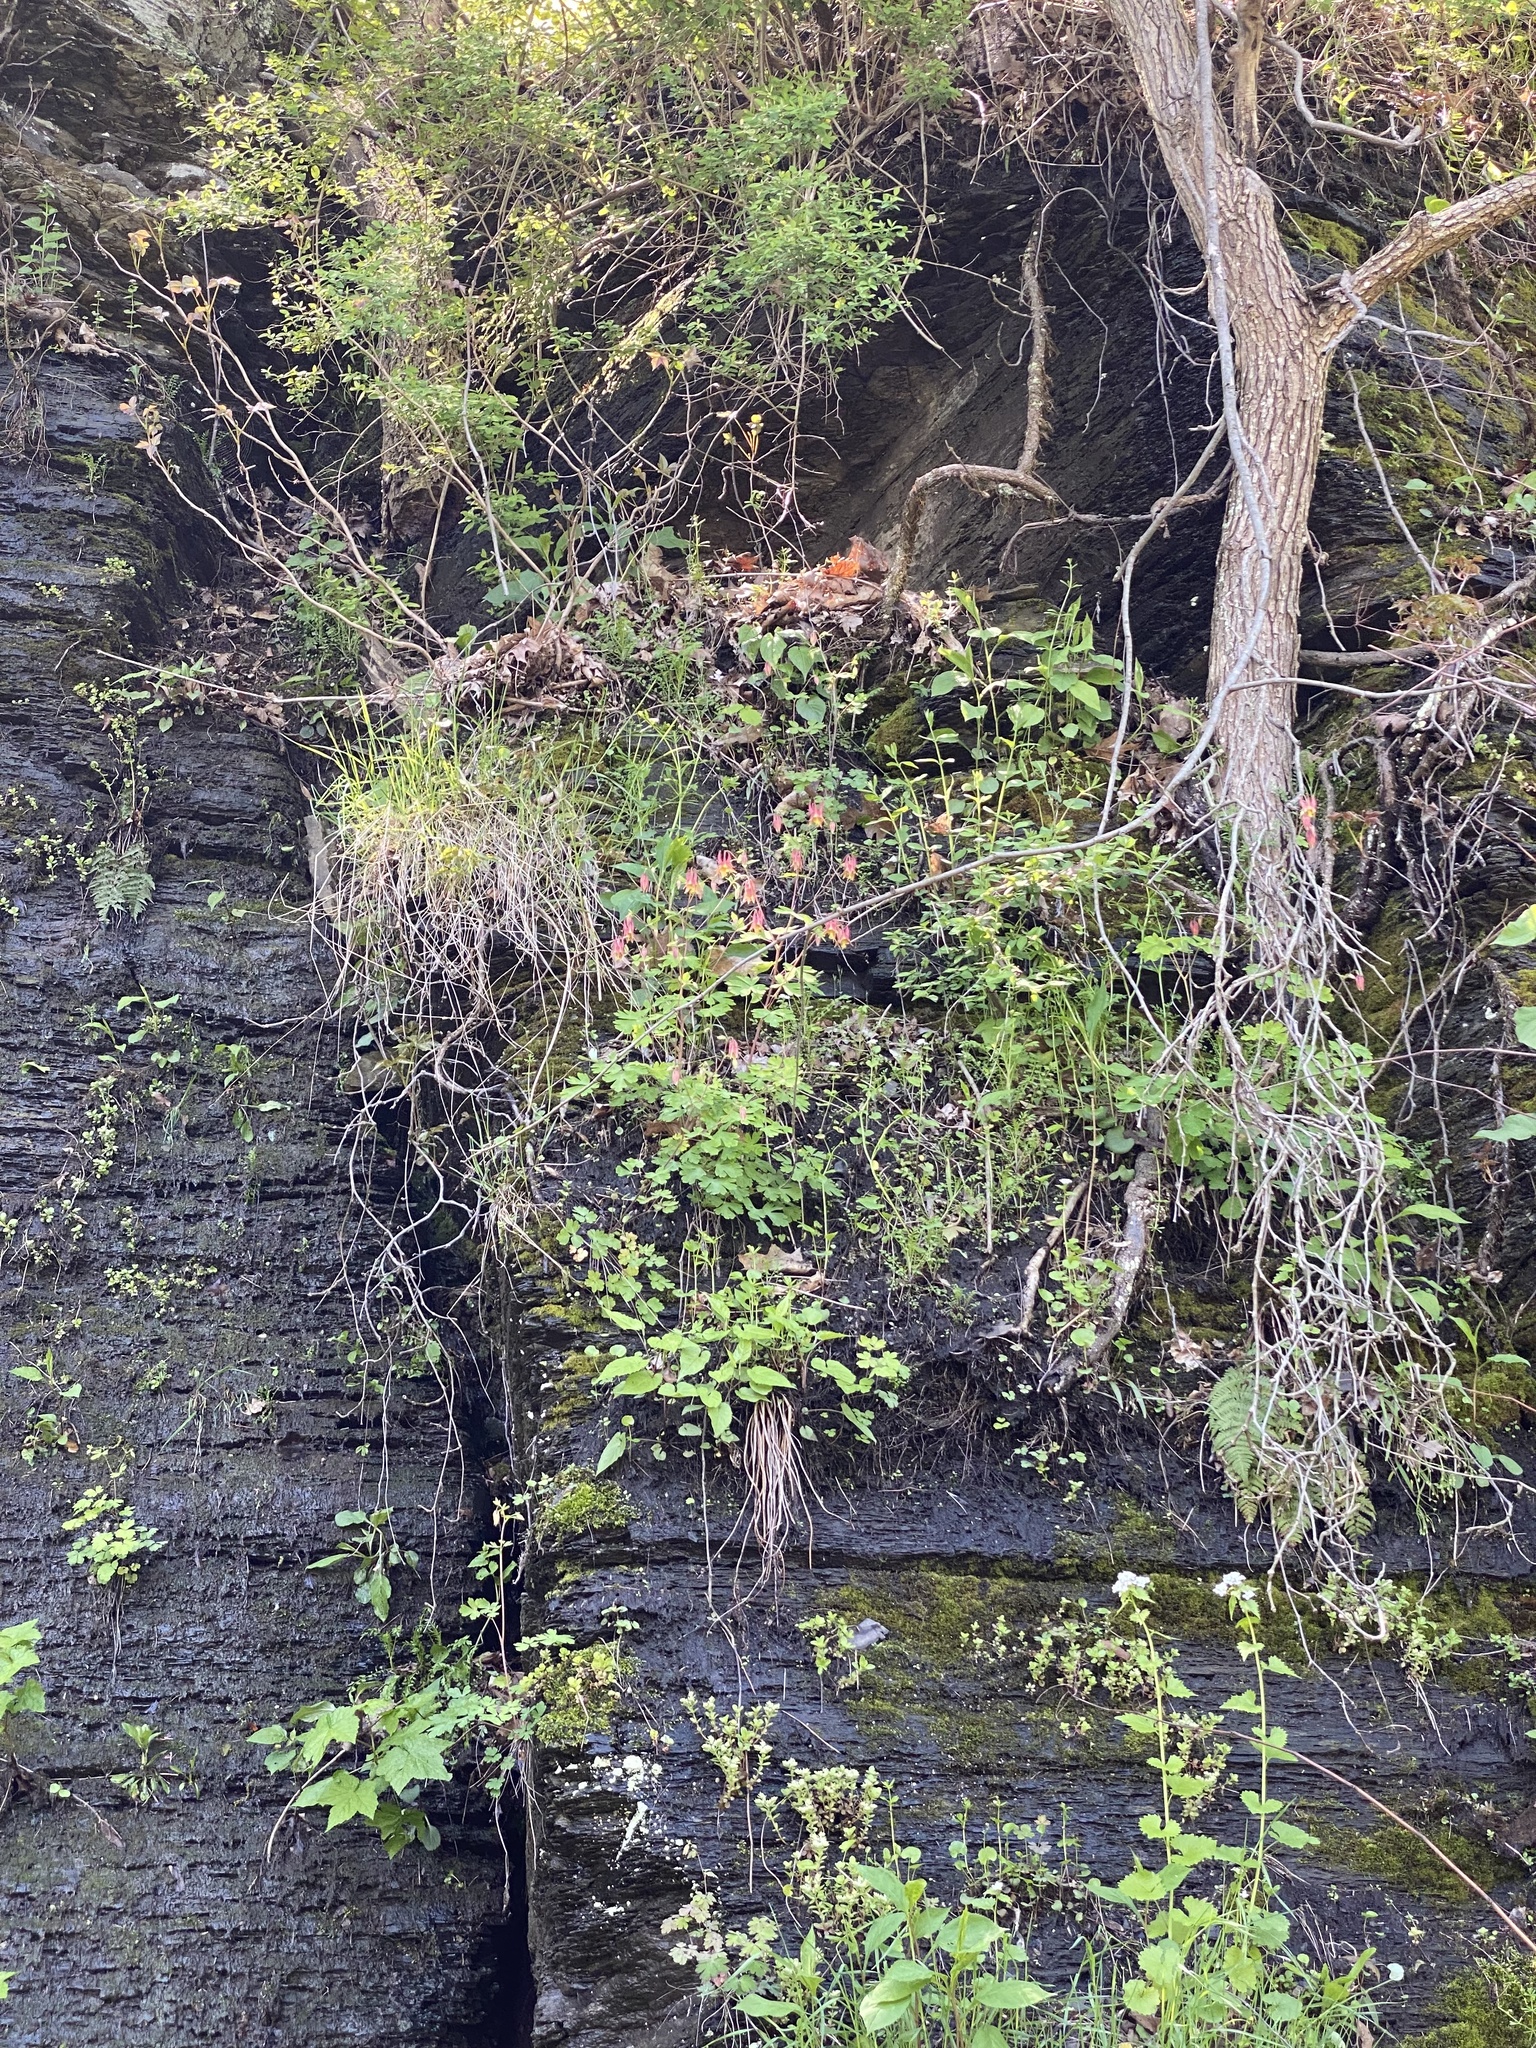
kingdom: Plantae
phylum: Tracheophyta
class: Magnoliopsida
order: Ranunculales
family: Ranunculaceae
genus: Aquilegia
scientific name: Aquilegia canadensis
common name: American columbine
